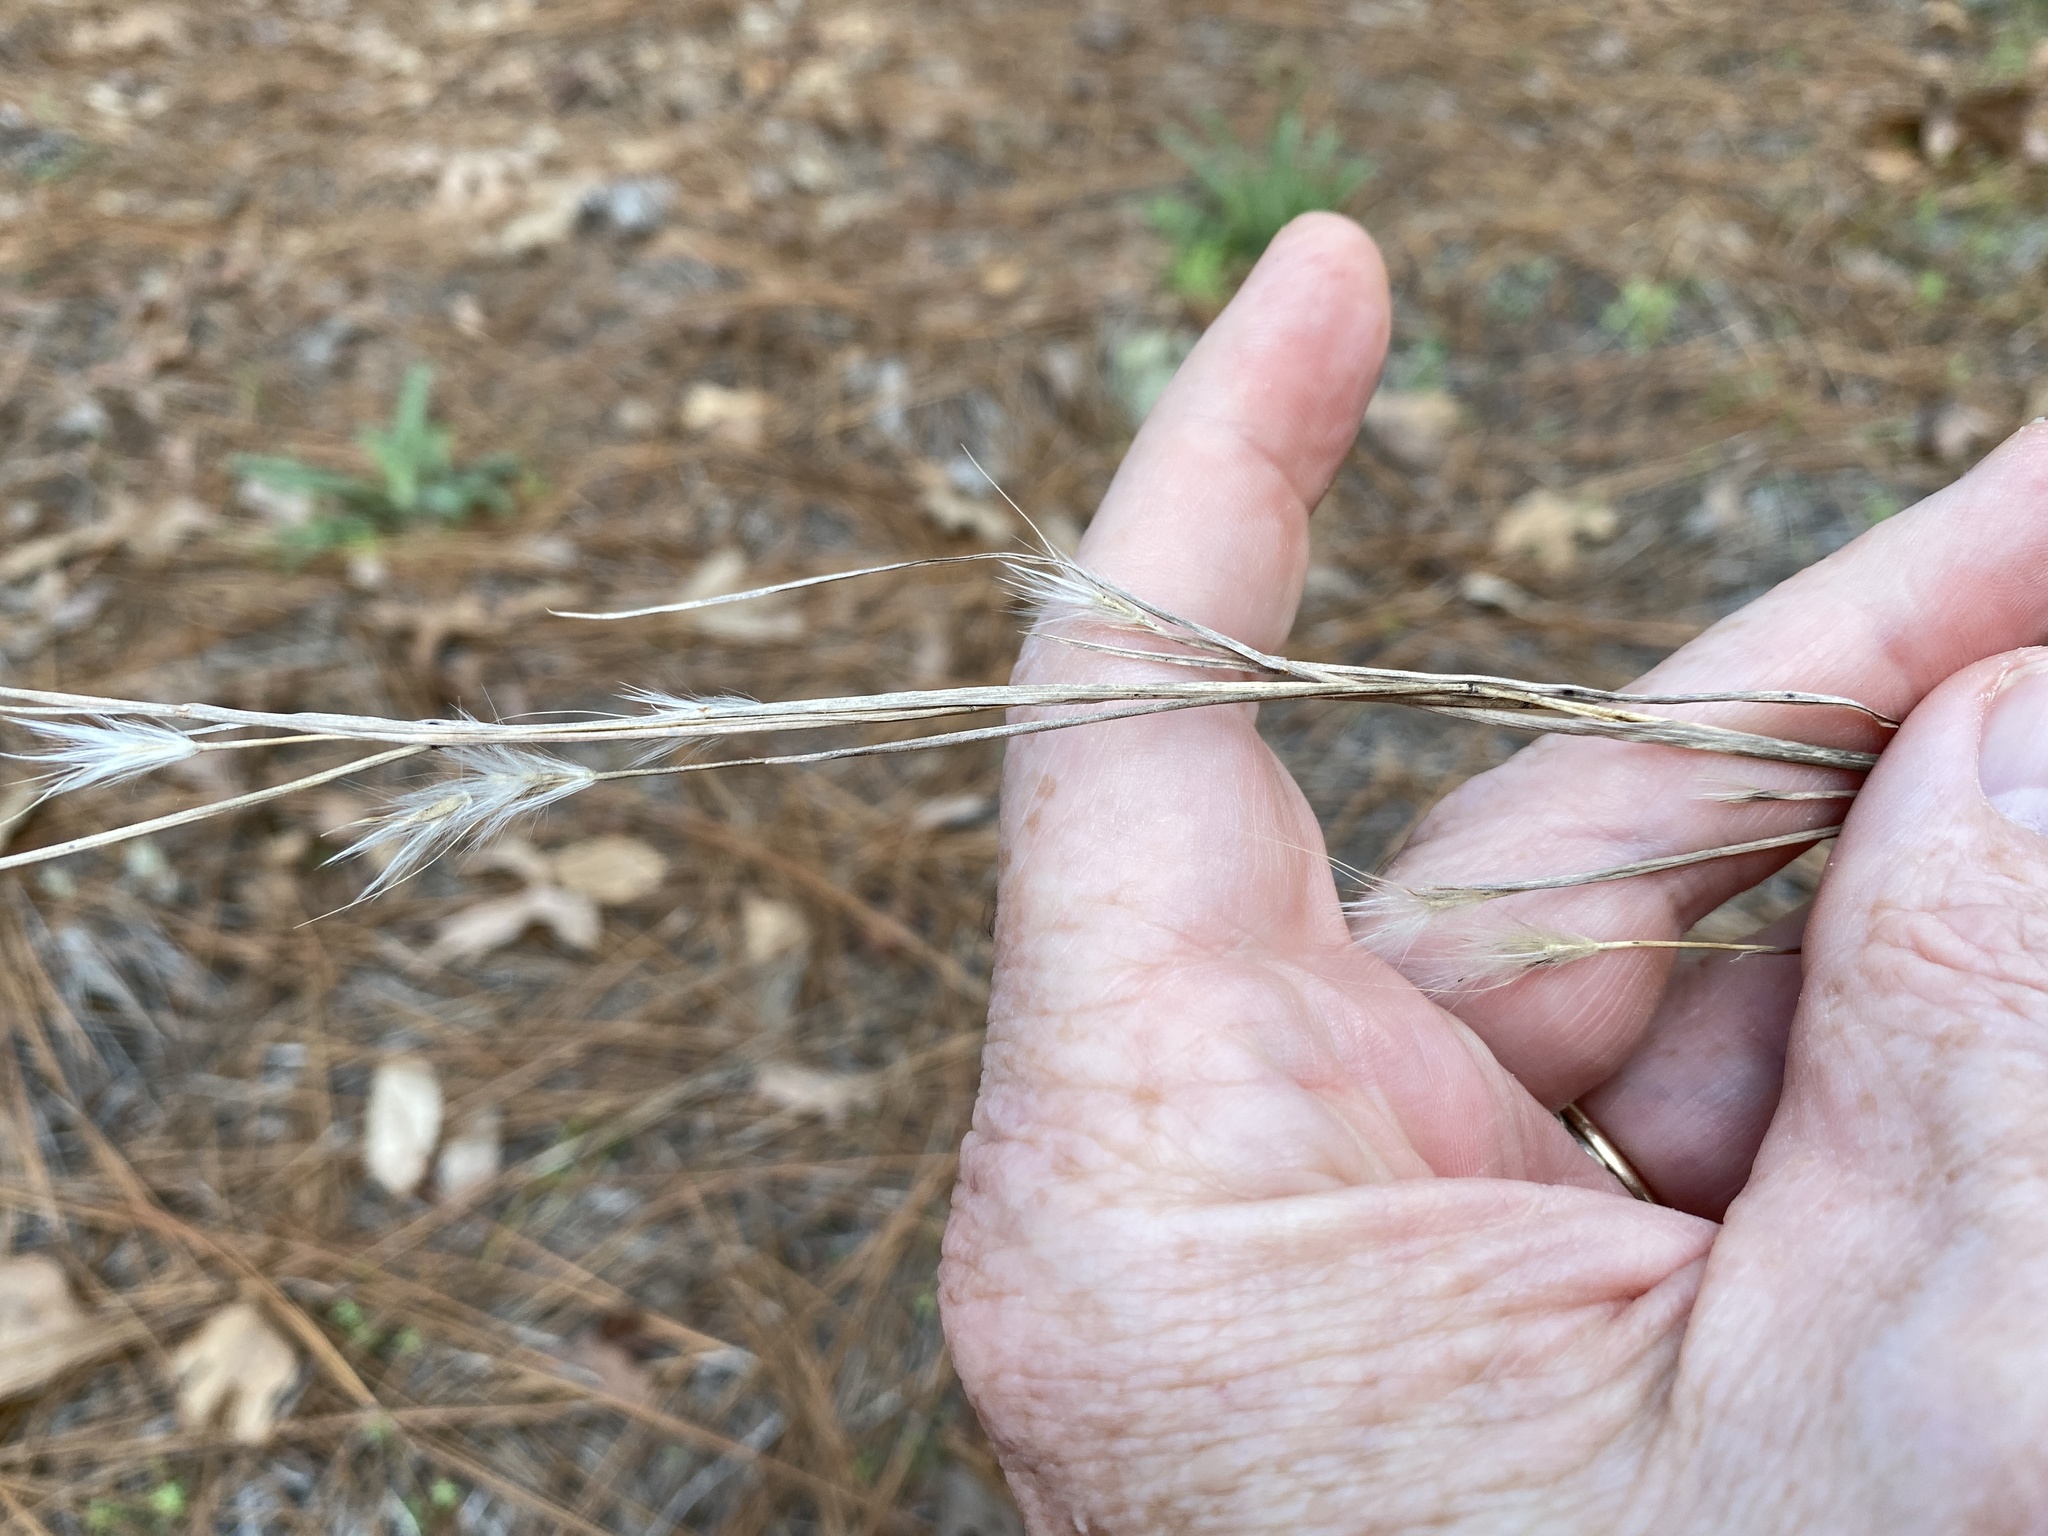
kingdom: Plantae
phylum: Tracheophyta
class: Liliopsida
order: Poales
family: Poaceae
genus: Andropogon
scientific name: Andropogon ternarius
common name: Split bluestem
